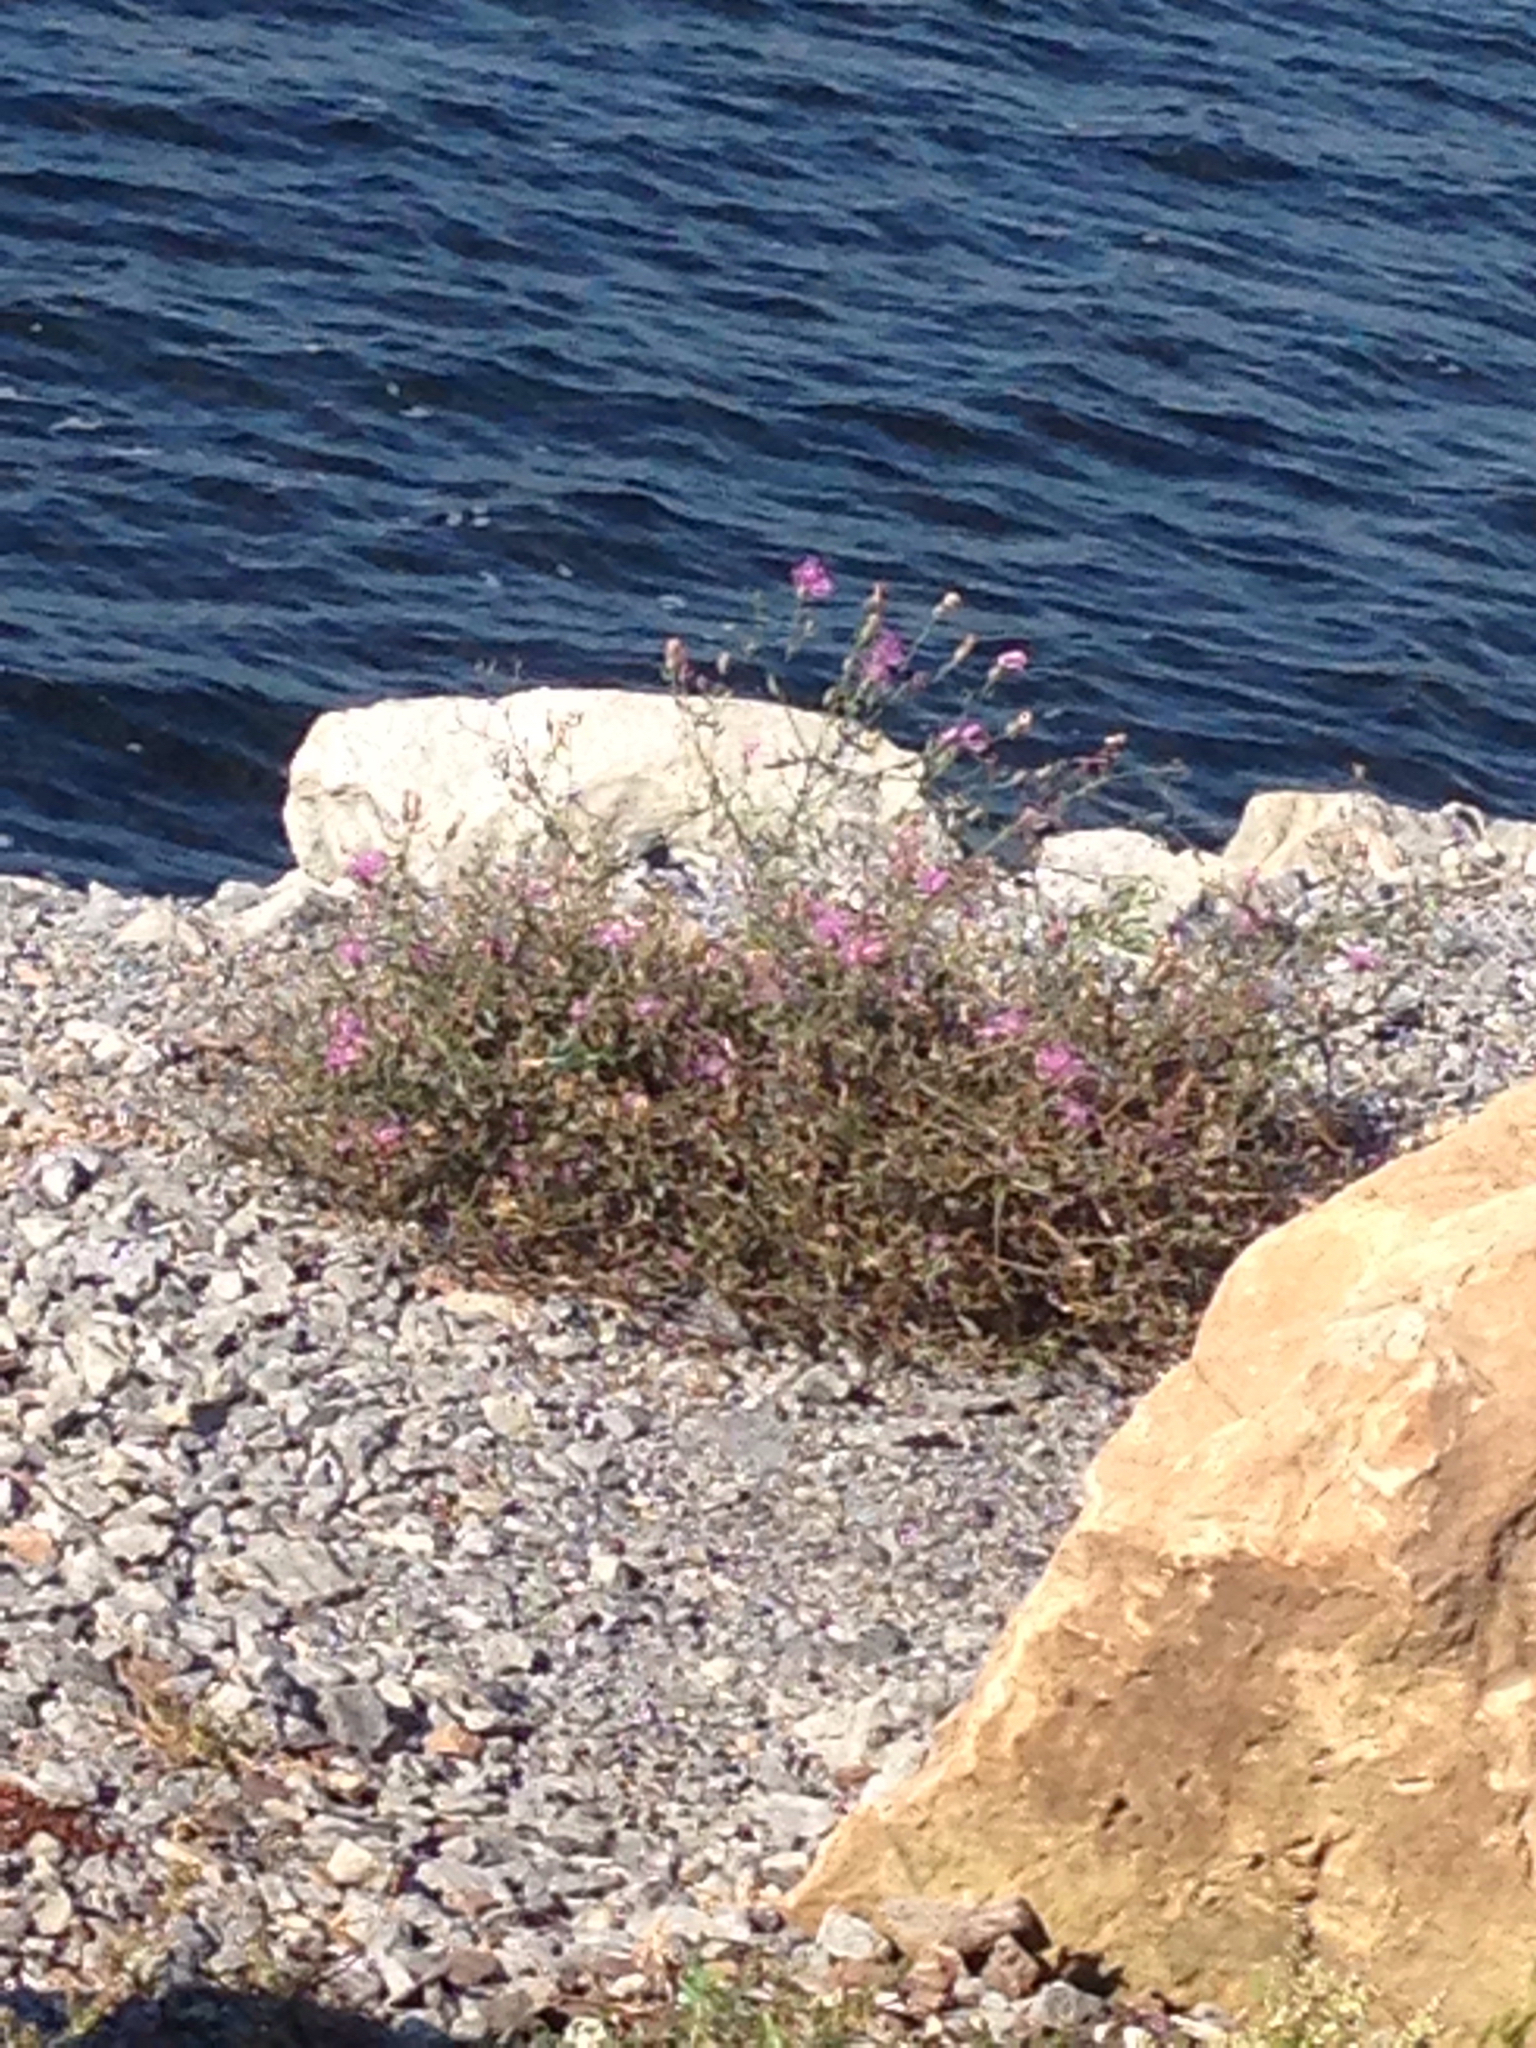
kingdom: Plantae
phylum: Tracheophyta
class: Magnoliopsida
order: Asterales
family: Asteraceae
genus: Centaurea
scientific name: Centaurea stoebe
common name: Spotted knapweed
